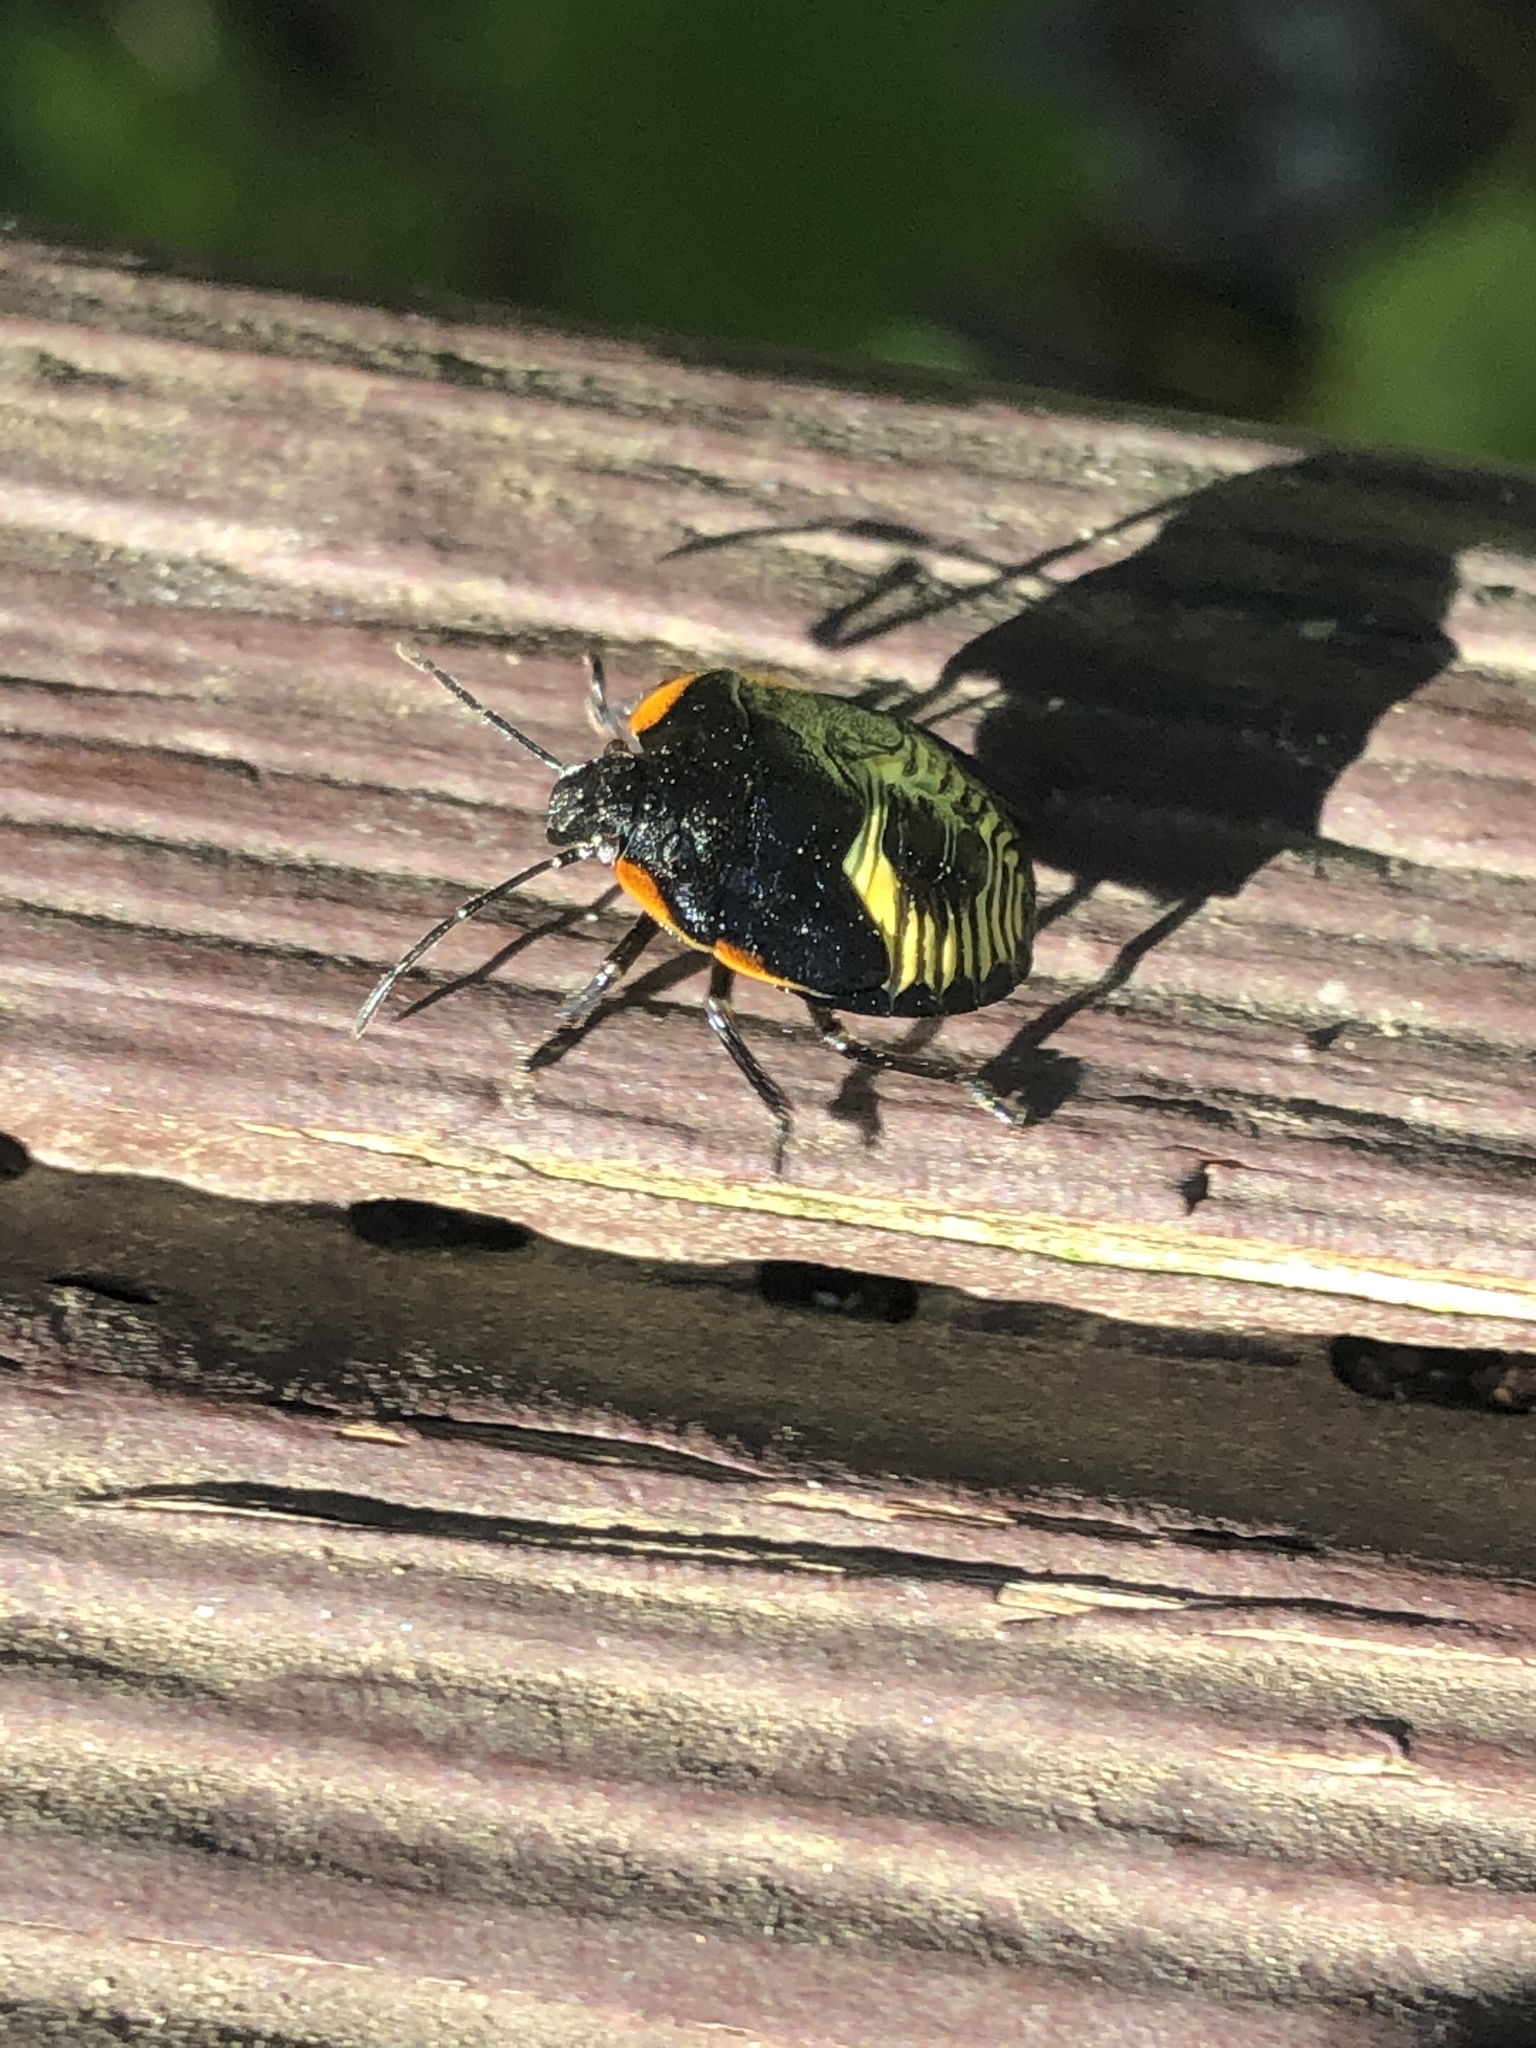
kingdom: Animalia
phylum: Arthropoda
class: Insecta
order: Hemiptera
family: Pentatomidae
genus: Chinavia
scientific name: Chinavia hilaris
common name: Green stink bug
